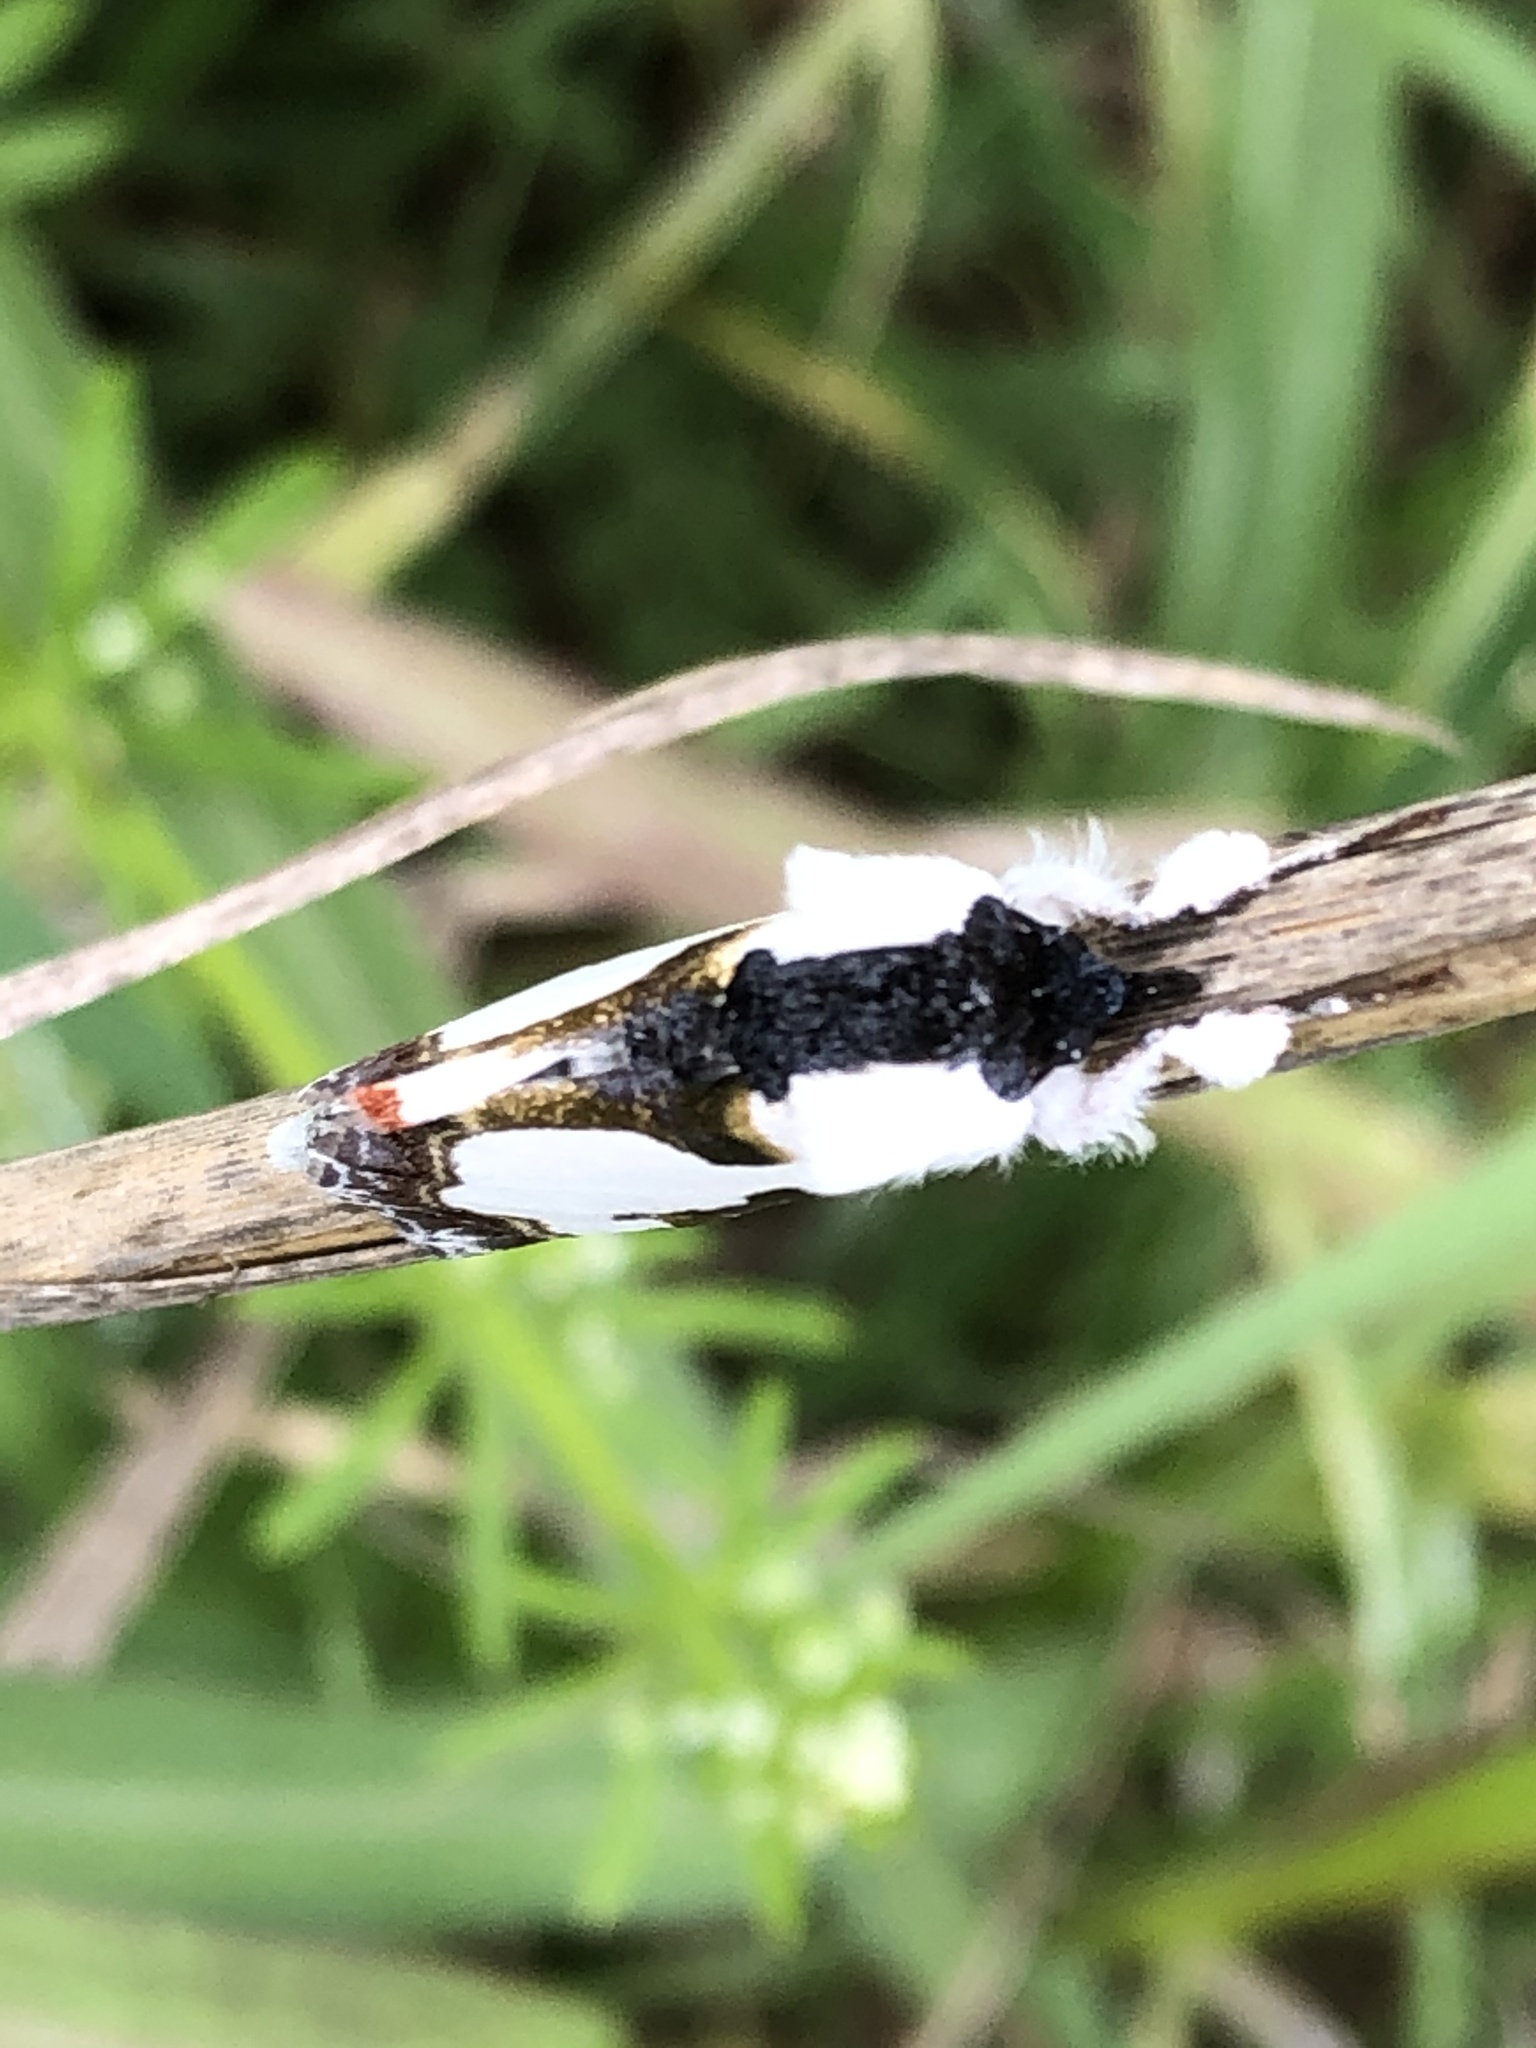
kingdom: Animalia
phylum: Arthropoda
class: Insecta
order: Lepidoptera
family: Noctuidae
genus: Xerociris
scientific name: Xerociris wilsonii
